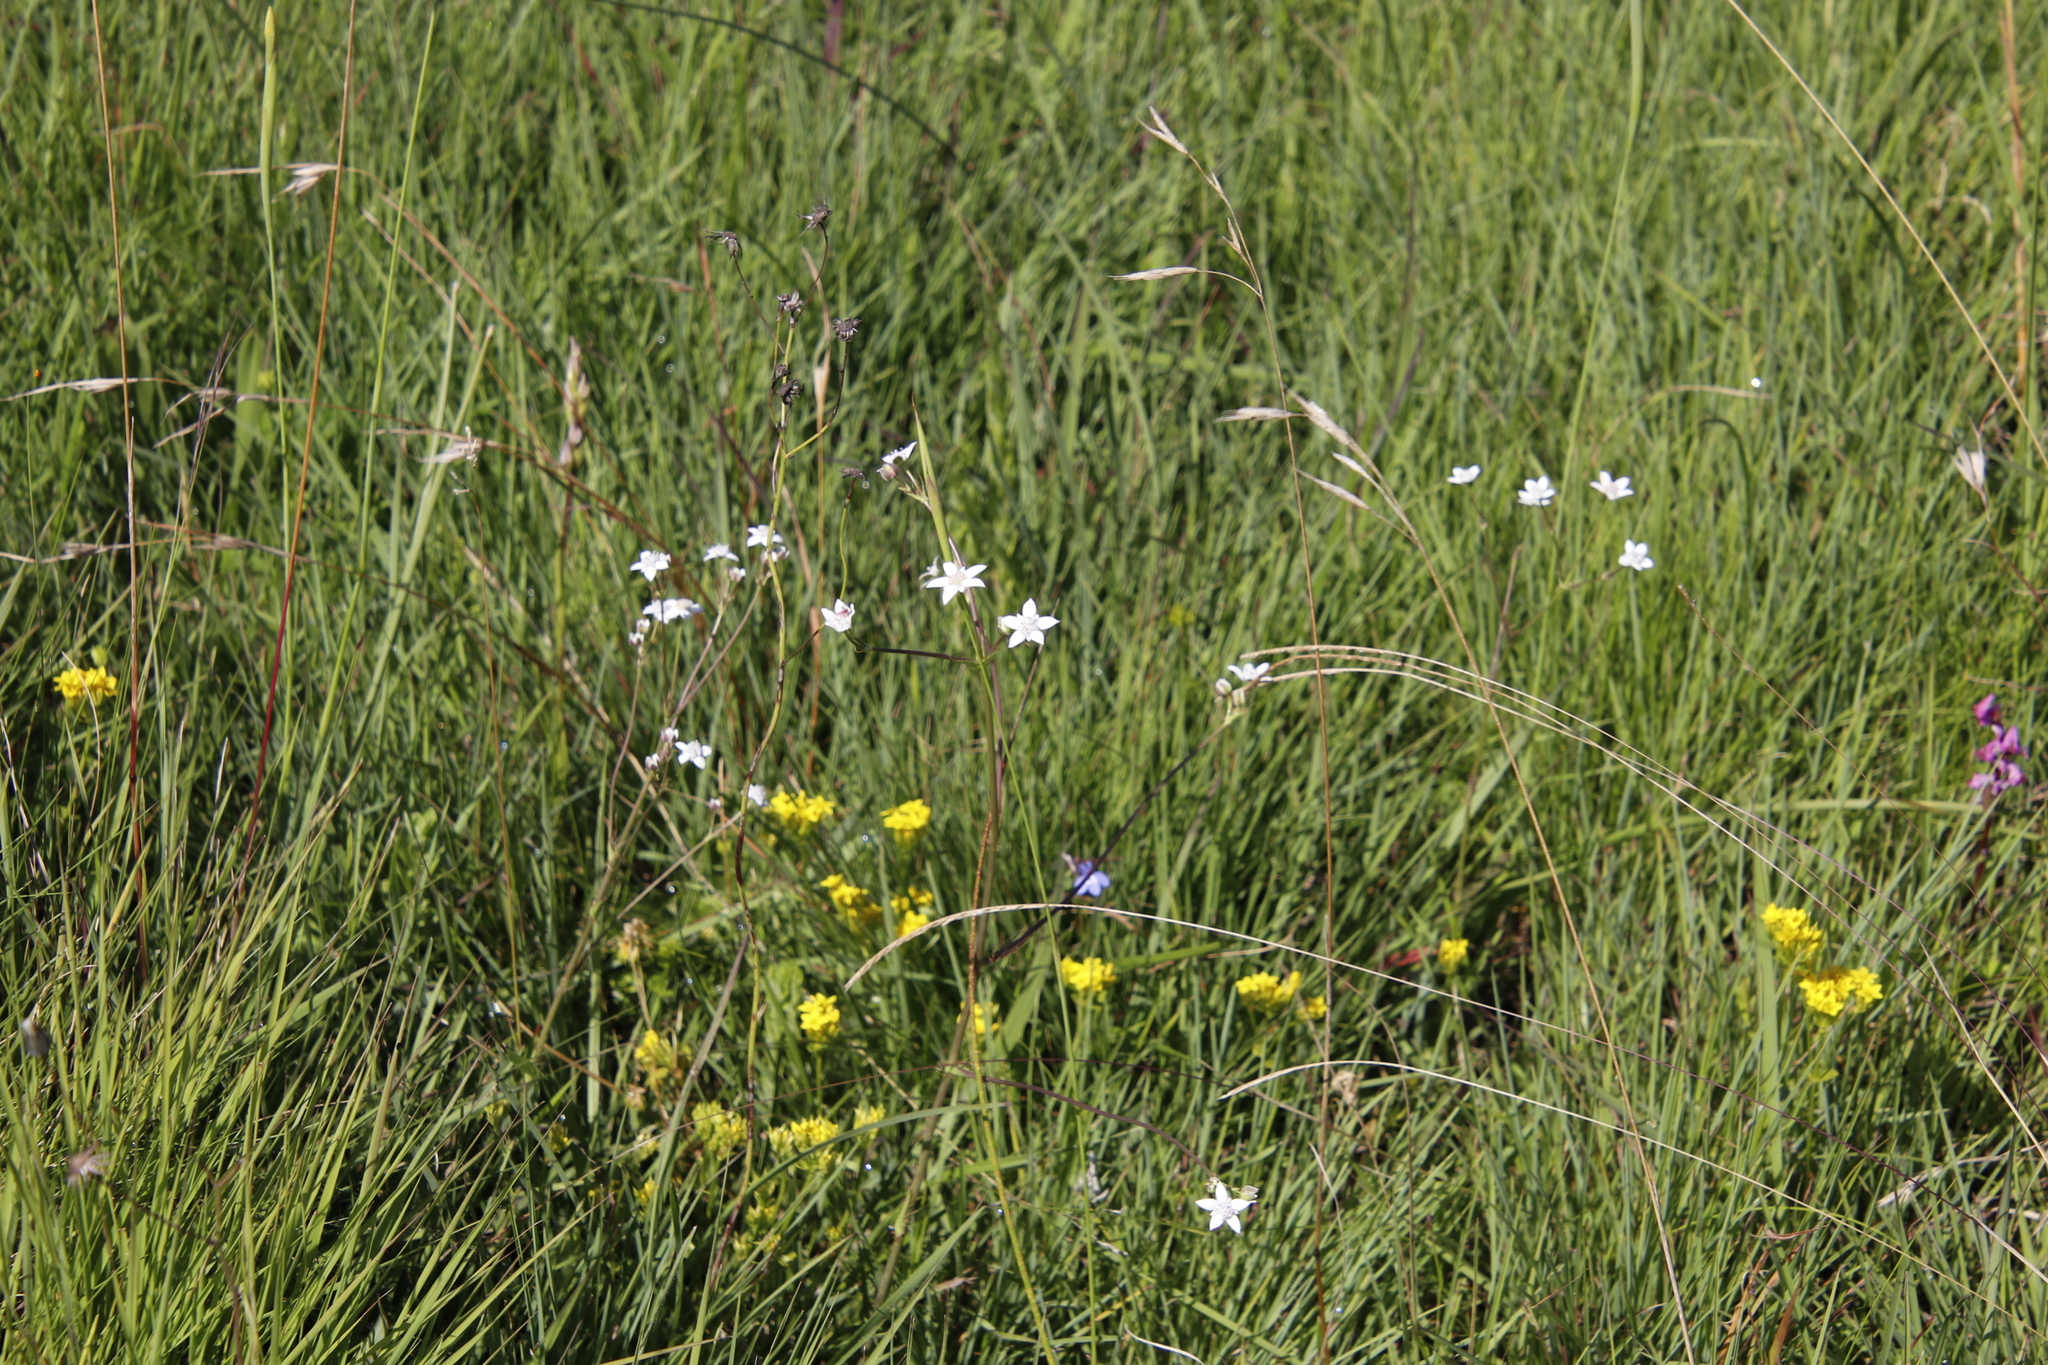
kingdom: Plantae
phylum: Tracheophyta
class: Magnoliopsida
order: Apiales
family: Apiaceae
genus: Alepidea
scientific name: Alepidea natalensis
